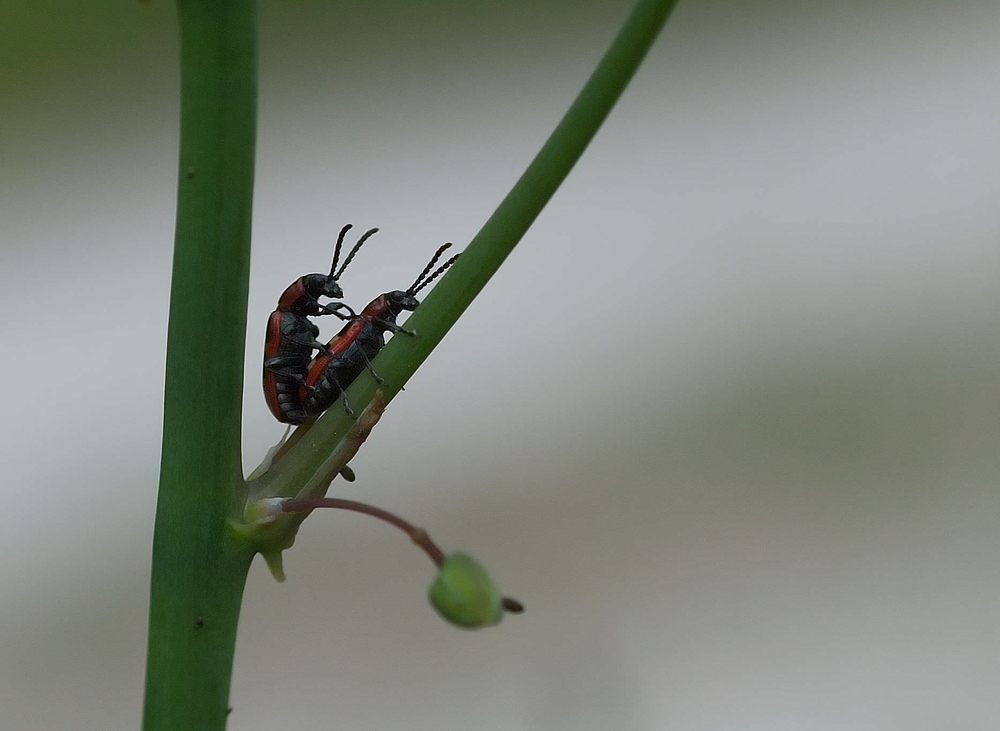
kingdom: Animalia
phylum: Arthropoda
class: Insecta
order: Coleoptera
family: Chrysomelidae
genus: Crioceris
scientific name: Crioceris asparagi
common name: Asparagus beetle
